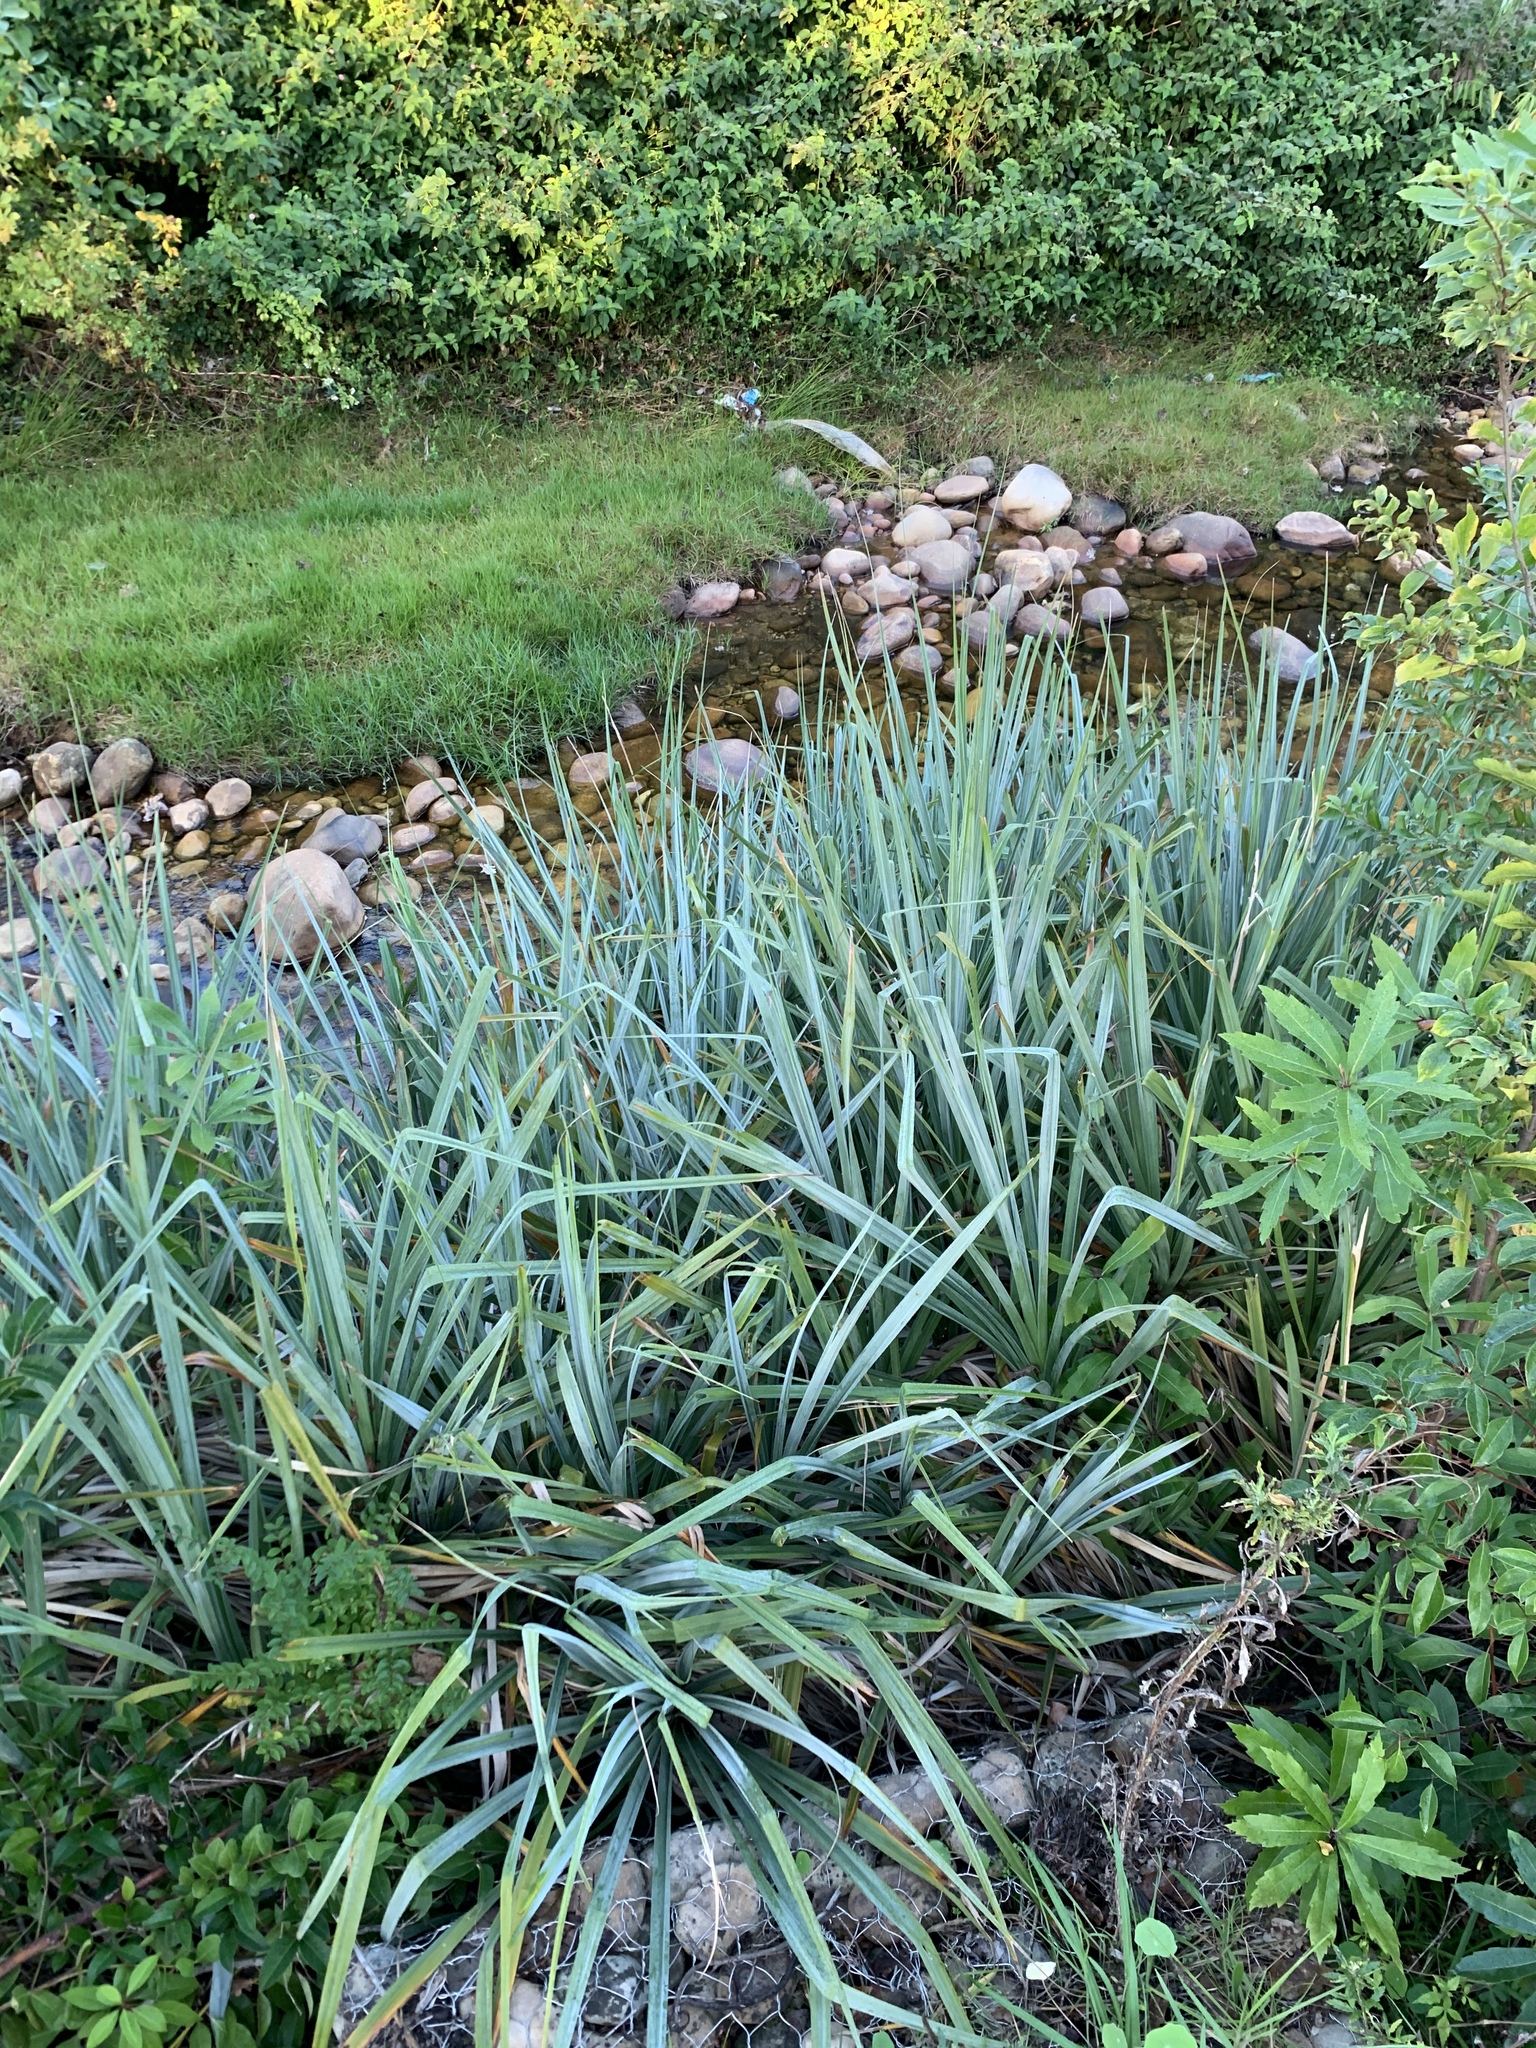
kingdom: Plantae
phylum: Tracheophyta
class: Liliopsida
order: Poales
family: Thurniaceae
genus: Prionium
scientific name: Prionium serratum
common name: Palmiet
